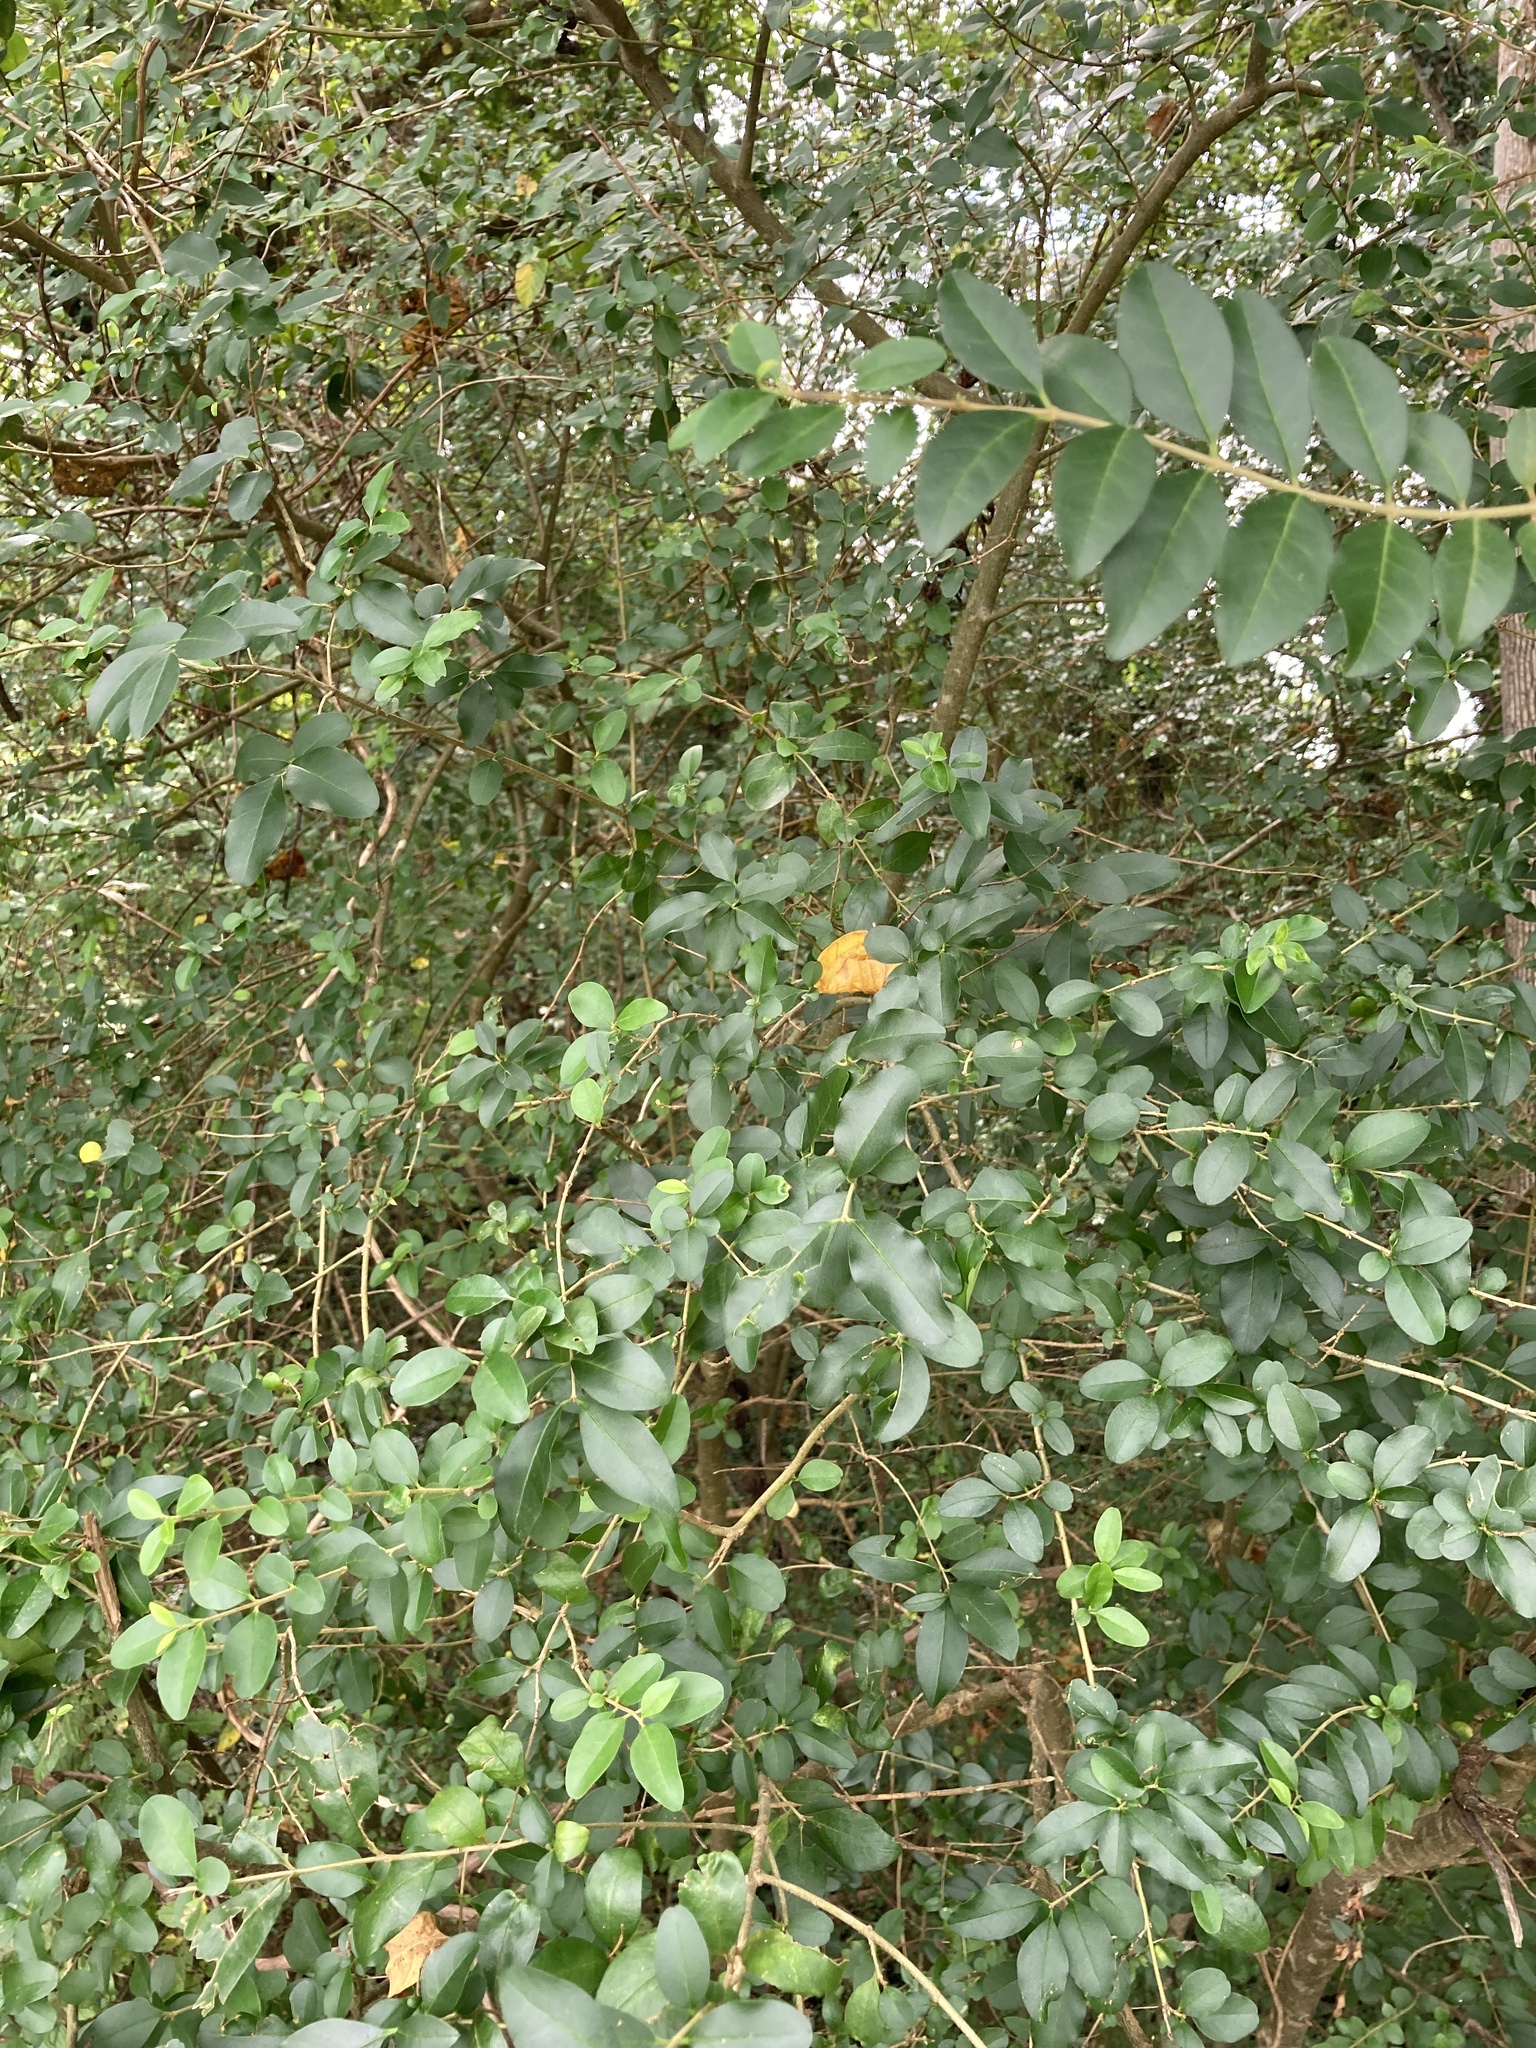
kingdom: Plantae
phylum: Tracheophyta
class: Magnoliopsida
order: Lamiales
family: Oleaceae
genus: Ligustrum
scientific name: Ligustrum sinense
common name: Chinese privet
